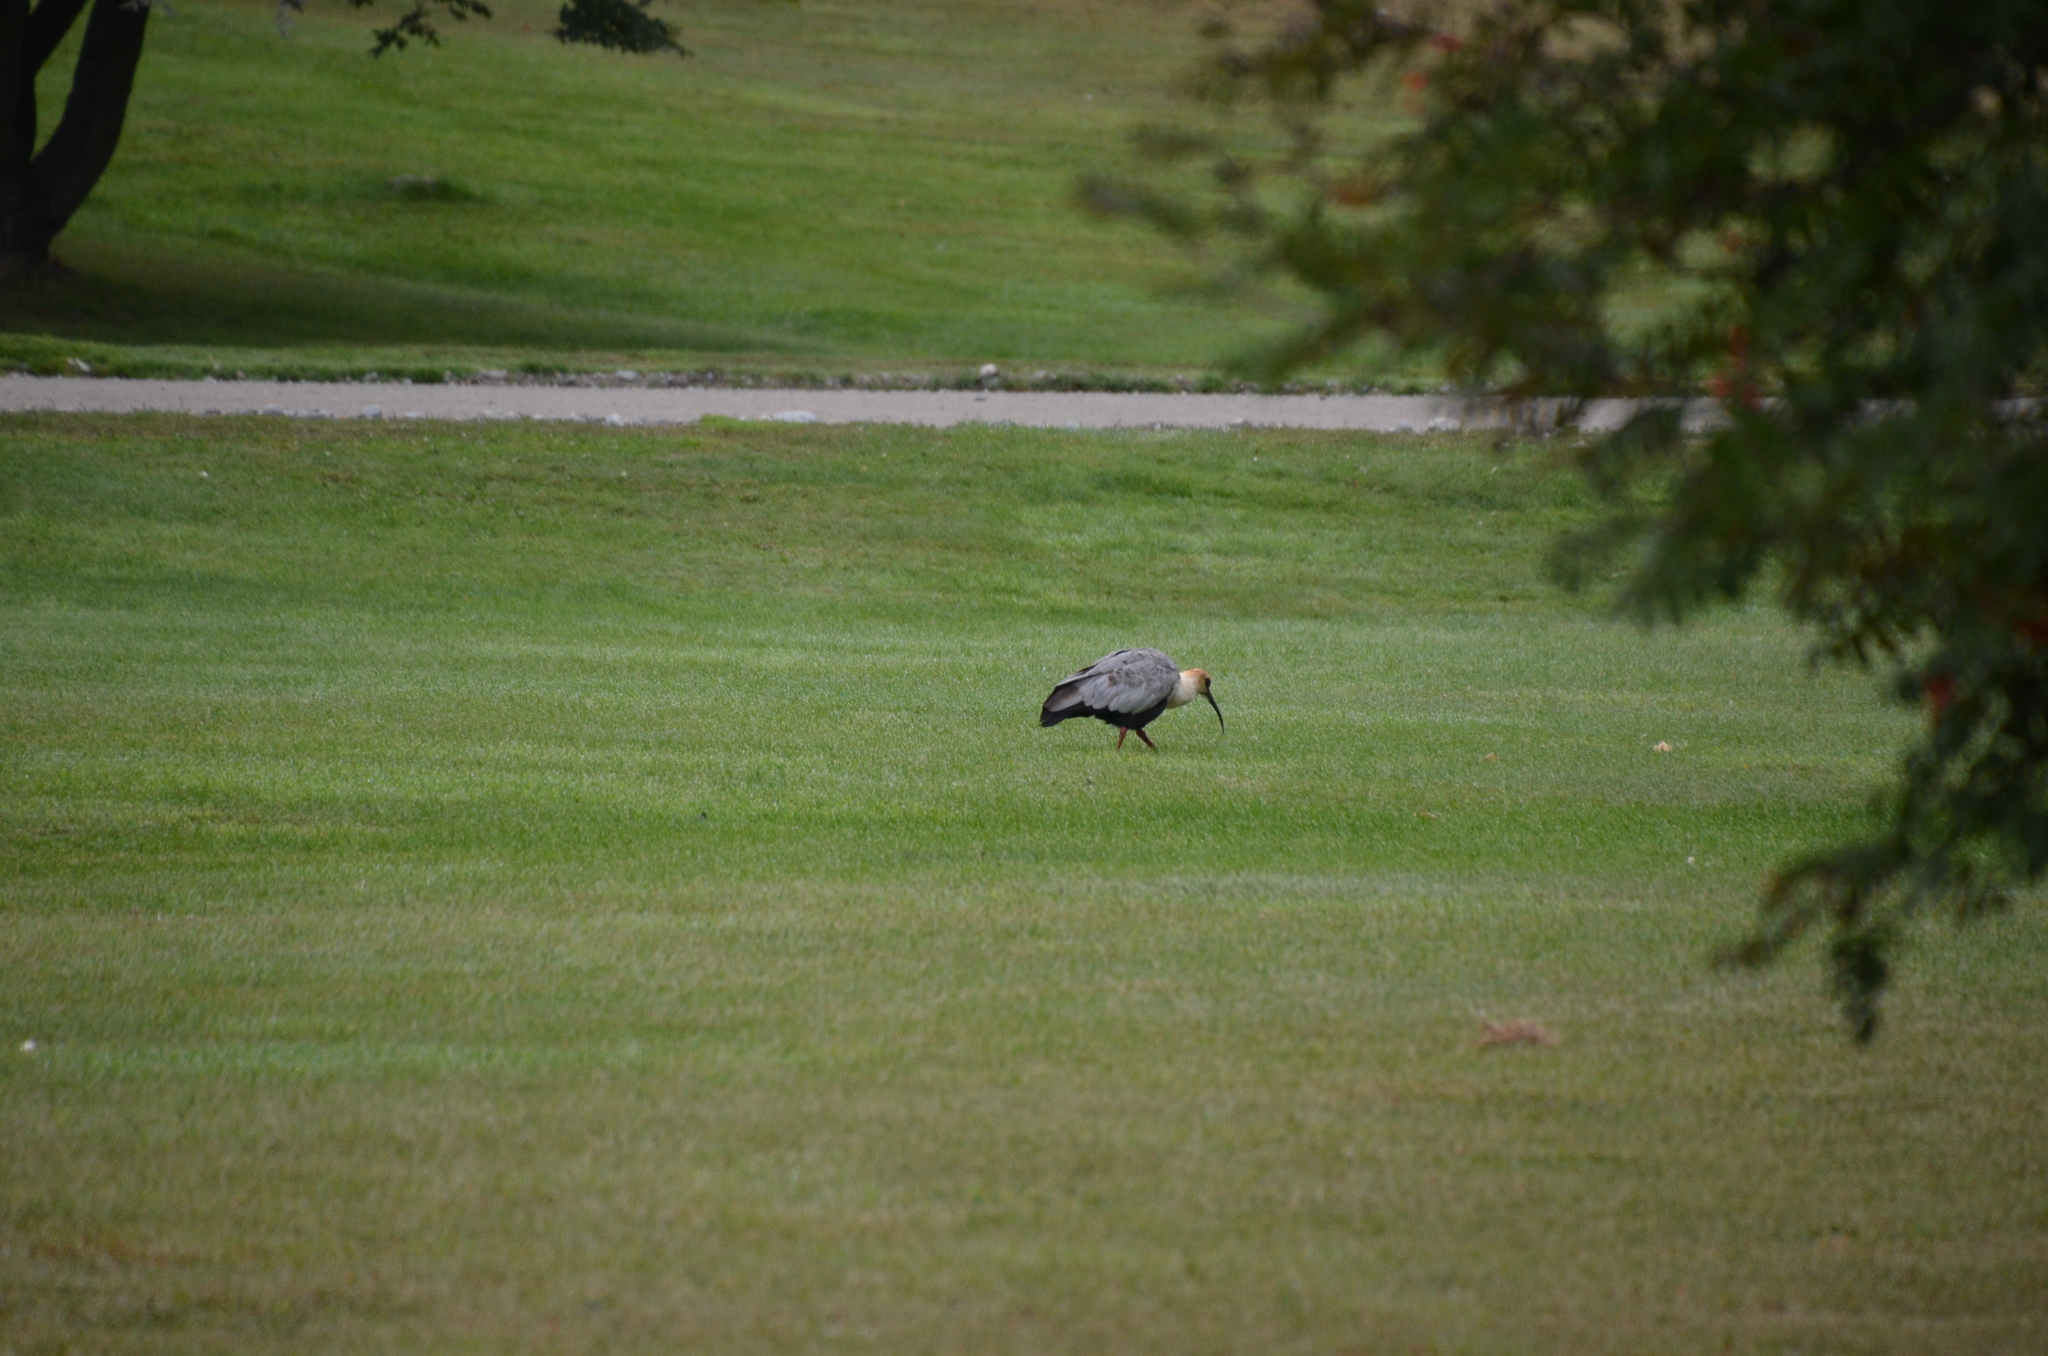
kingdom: Animalia
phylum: Chordata
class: Aves
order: Pelecaniformes
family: Threskiornithidae
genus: Theristicus
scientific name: Theristicus melanopis
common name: Black-faced ibis
